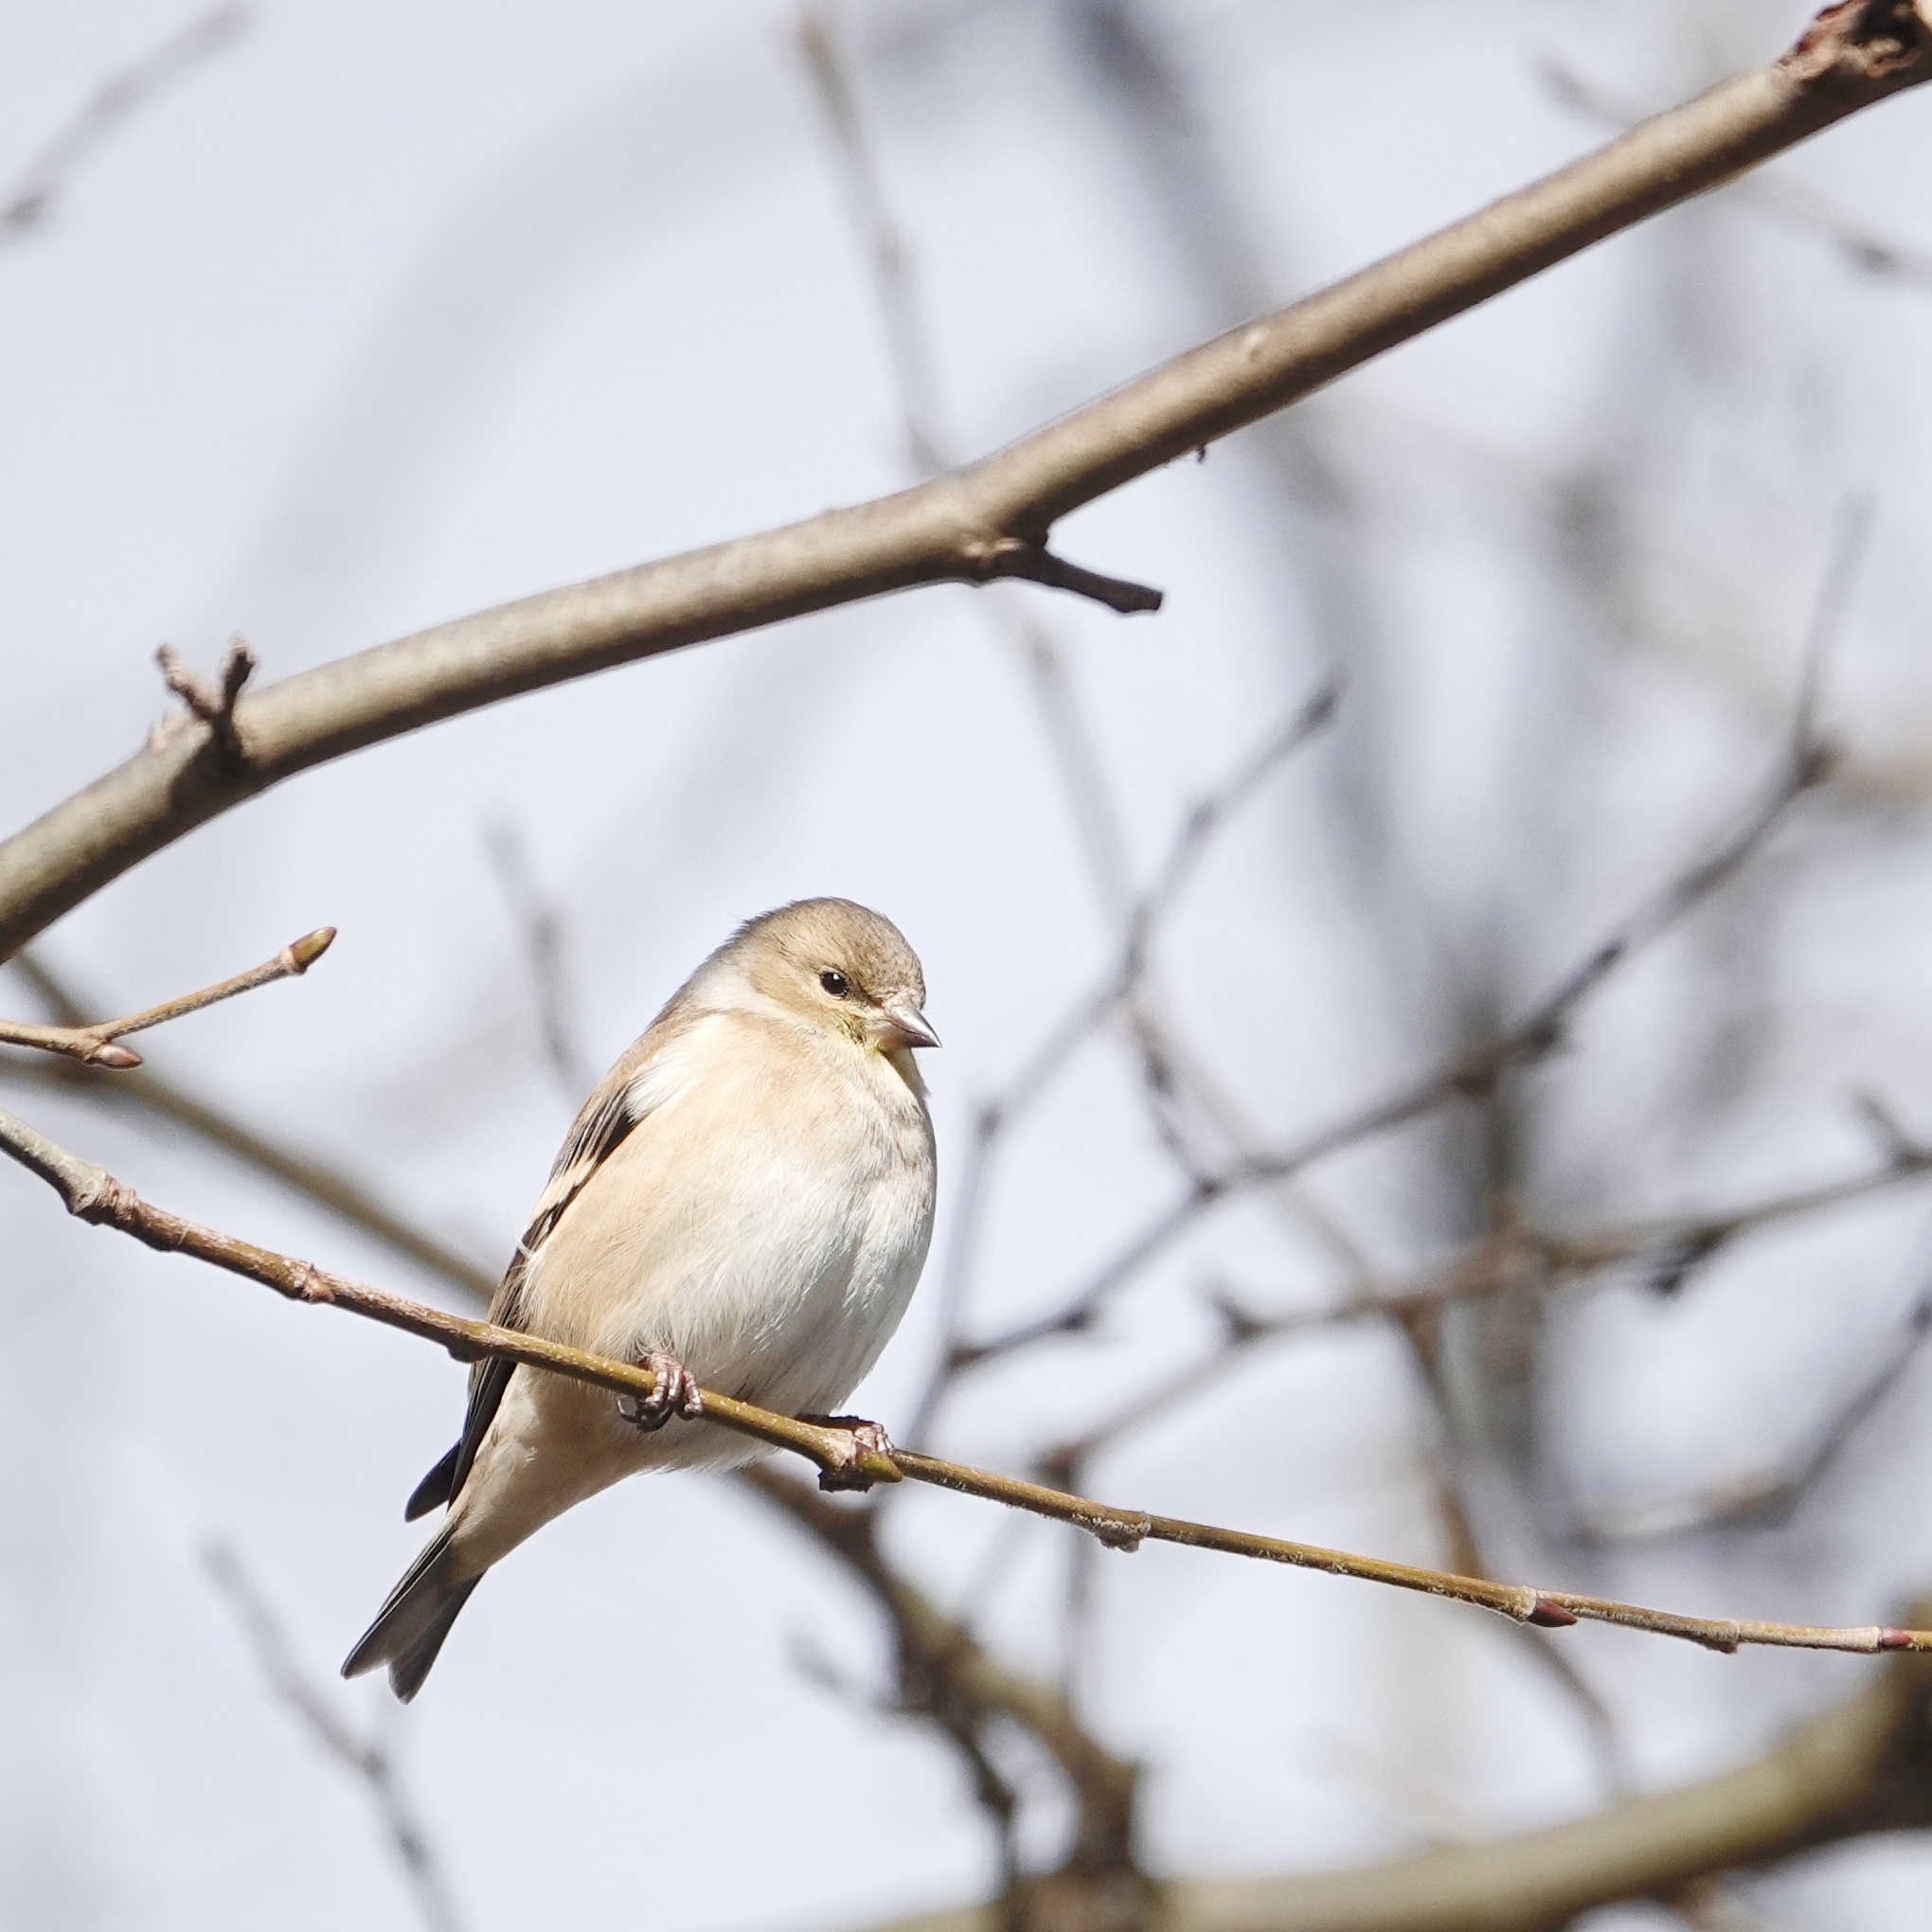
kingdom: Animalia
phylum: Chordata
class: Aves
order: Passeriformes
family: Fringillidae
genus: Spinus
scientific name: Spinus tristis
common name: American goldfinch
